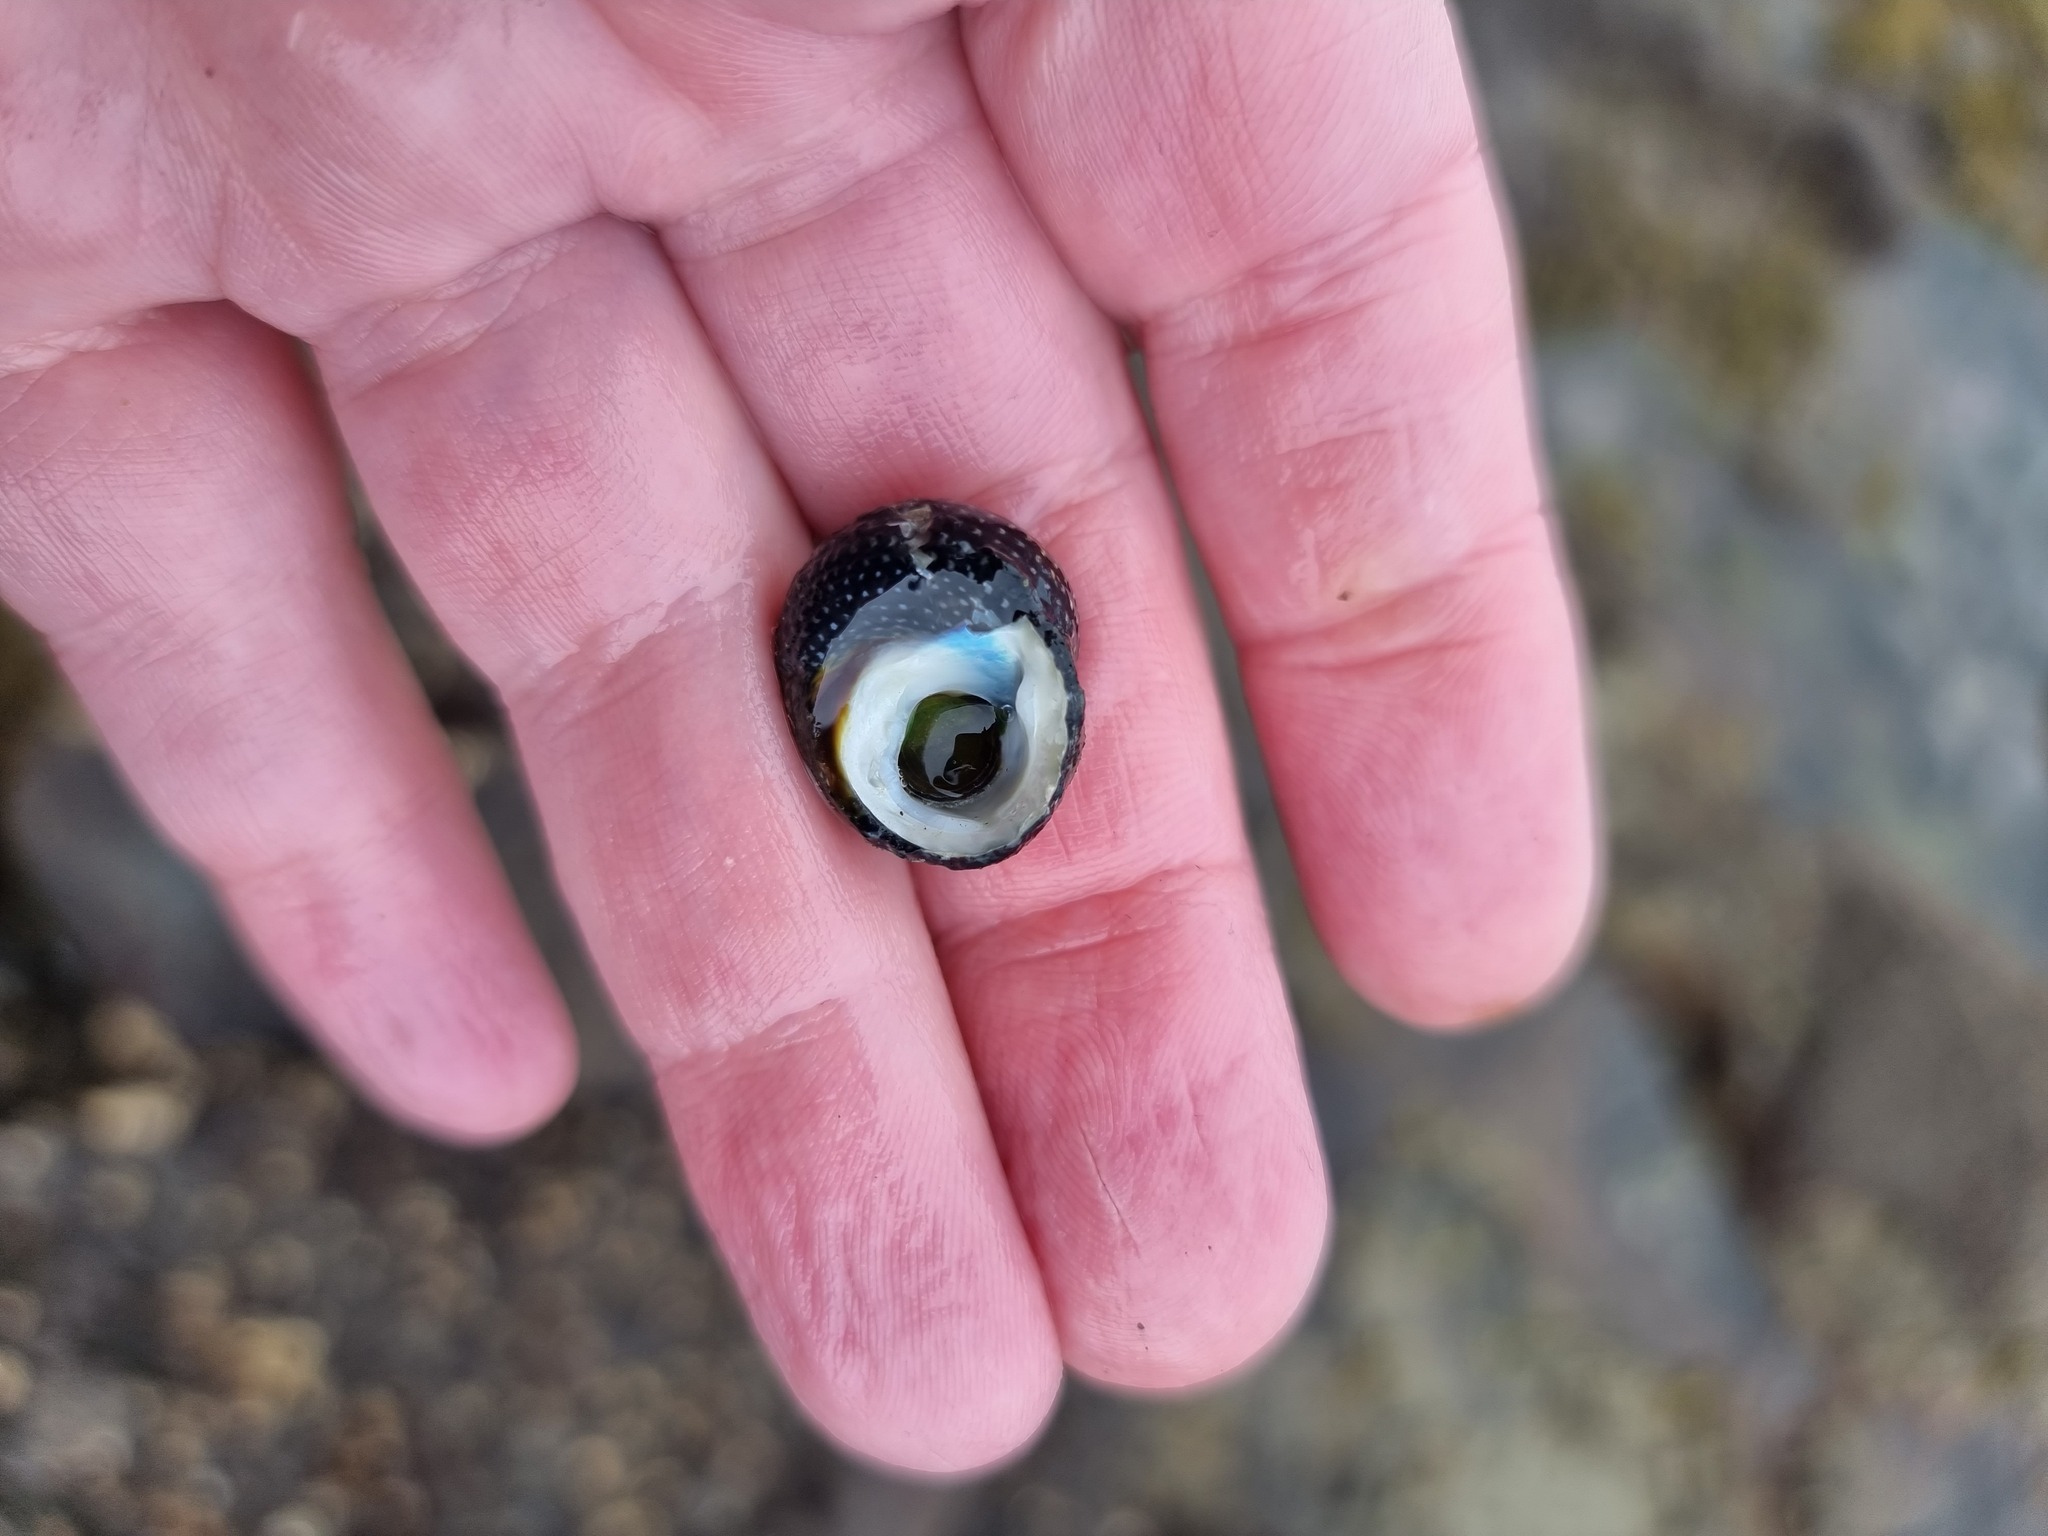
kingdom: Animalia
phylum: Mollusca
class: Gastropoda
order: Trochida
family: Trochidae
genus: Diloma
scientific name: Diloma aethiops
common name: Scorched monodont
